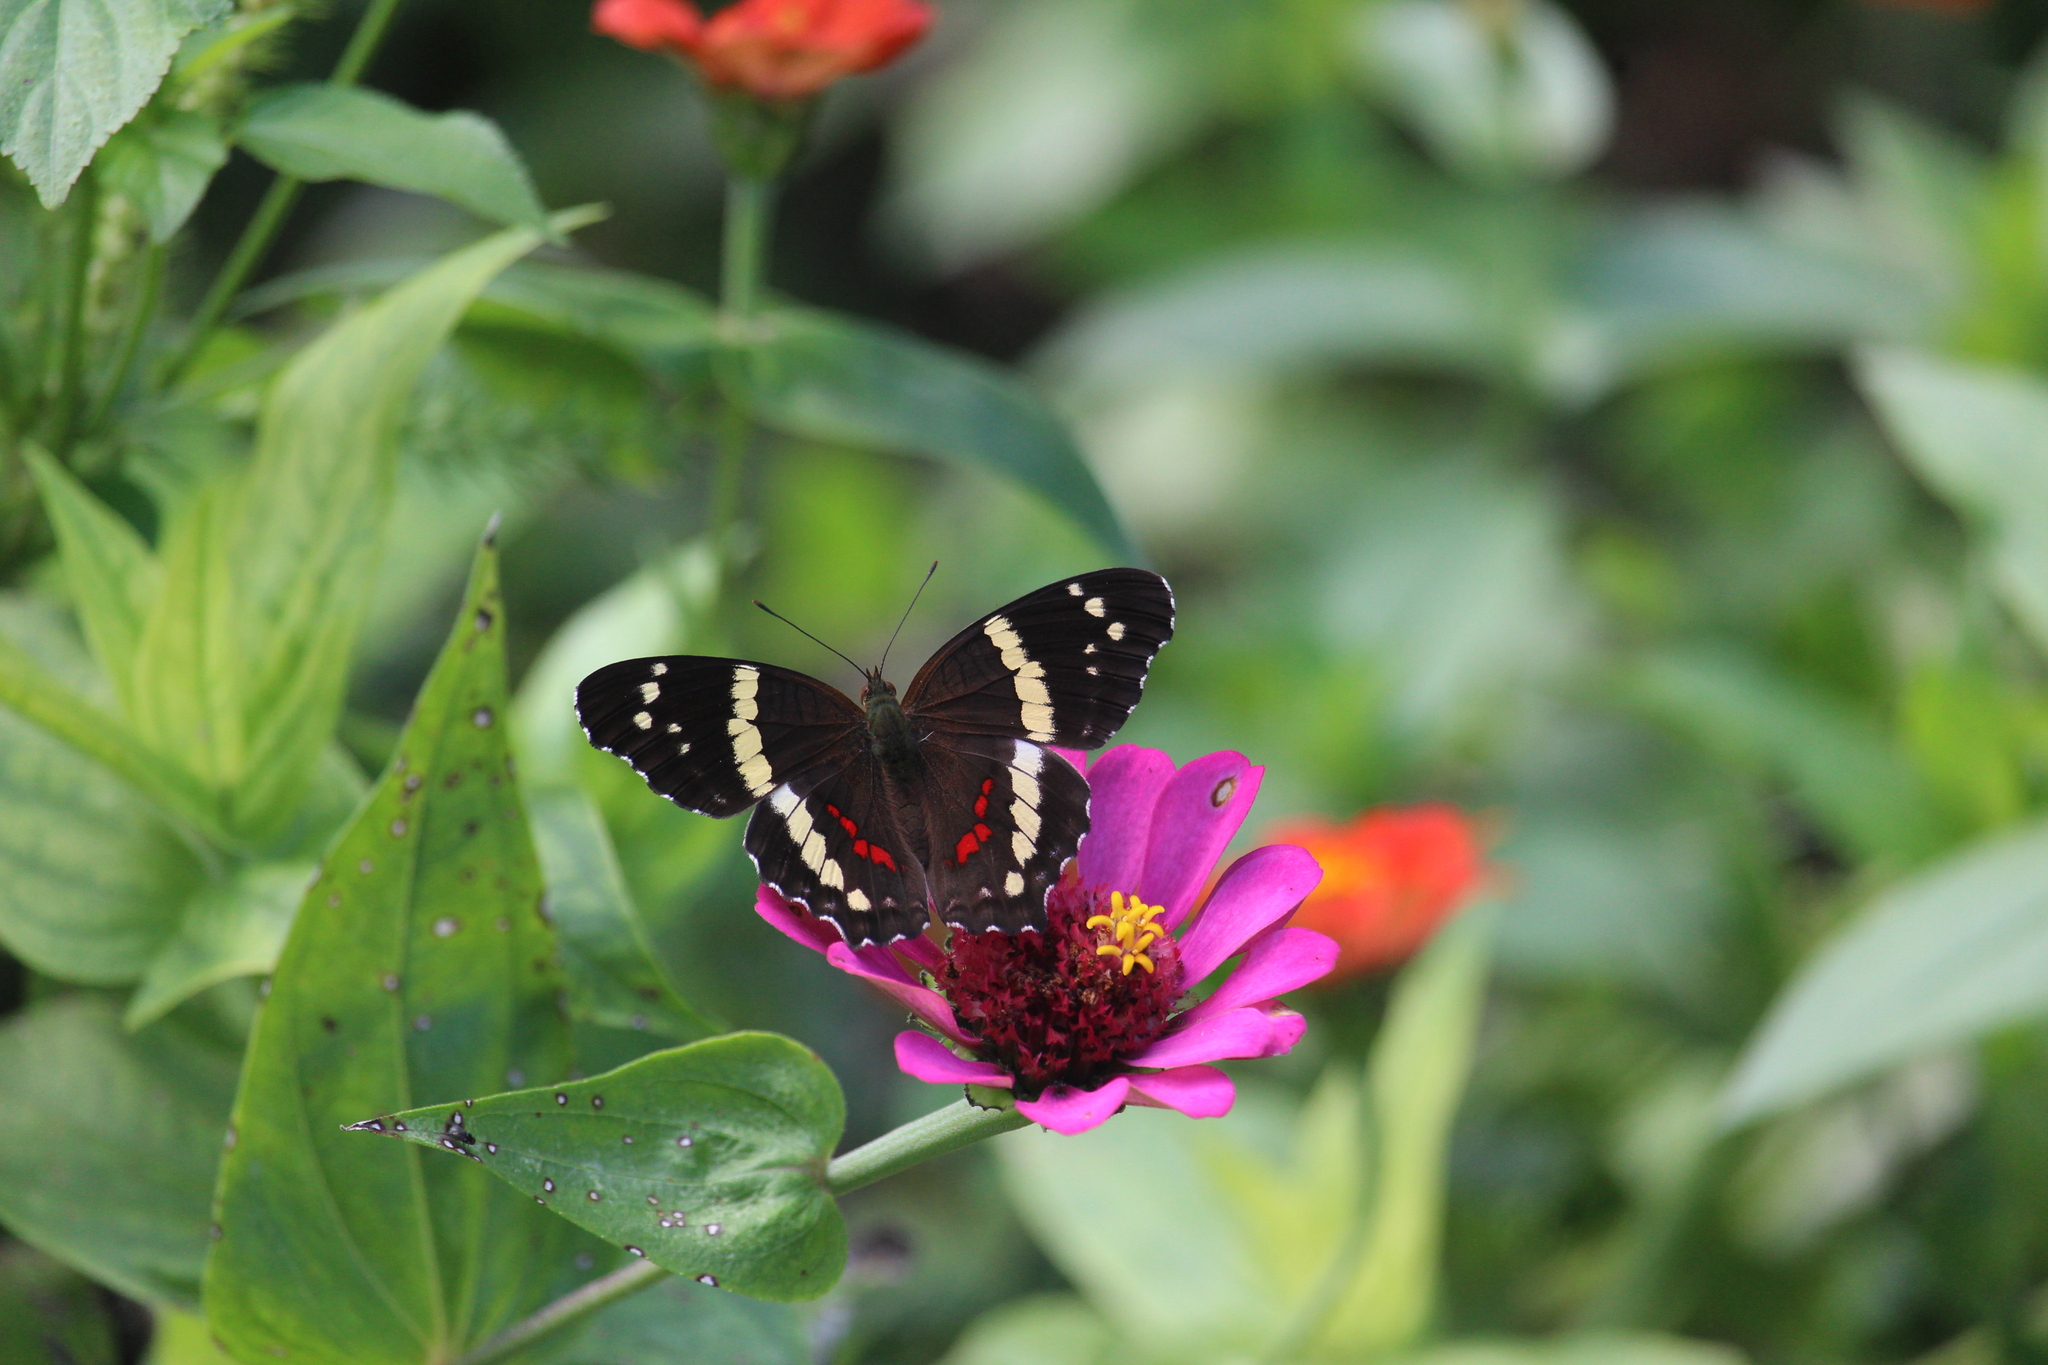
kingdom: Animalia
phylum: Arthropoda
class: Insecta
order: Lepidoptera
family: Nymphalidae
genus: Anartia
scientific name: Anartia fatima
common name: Banded peacock
